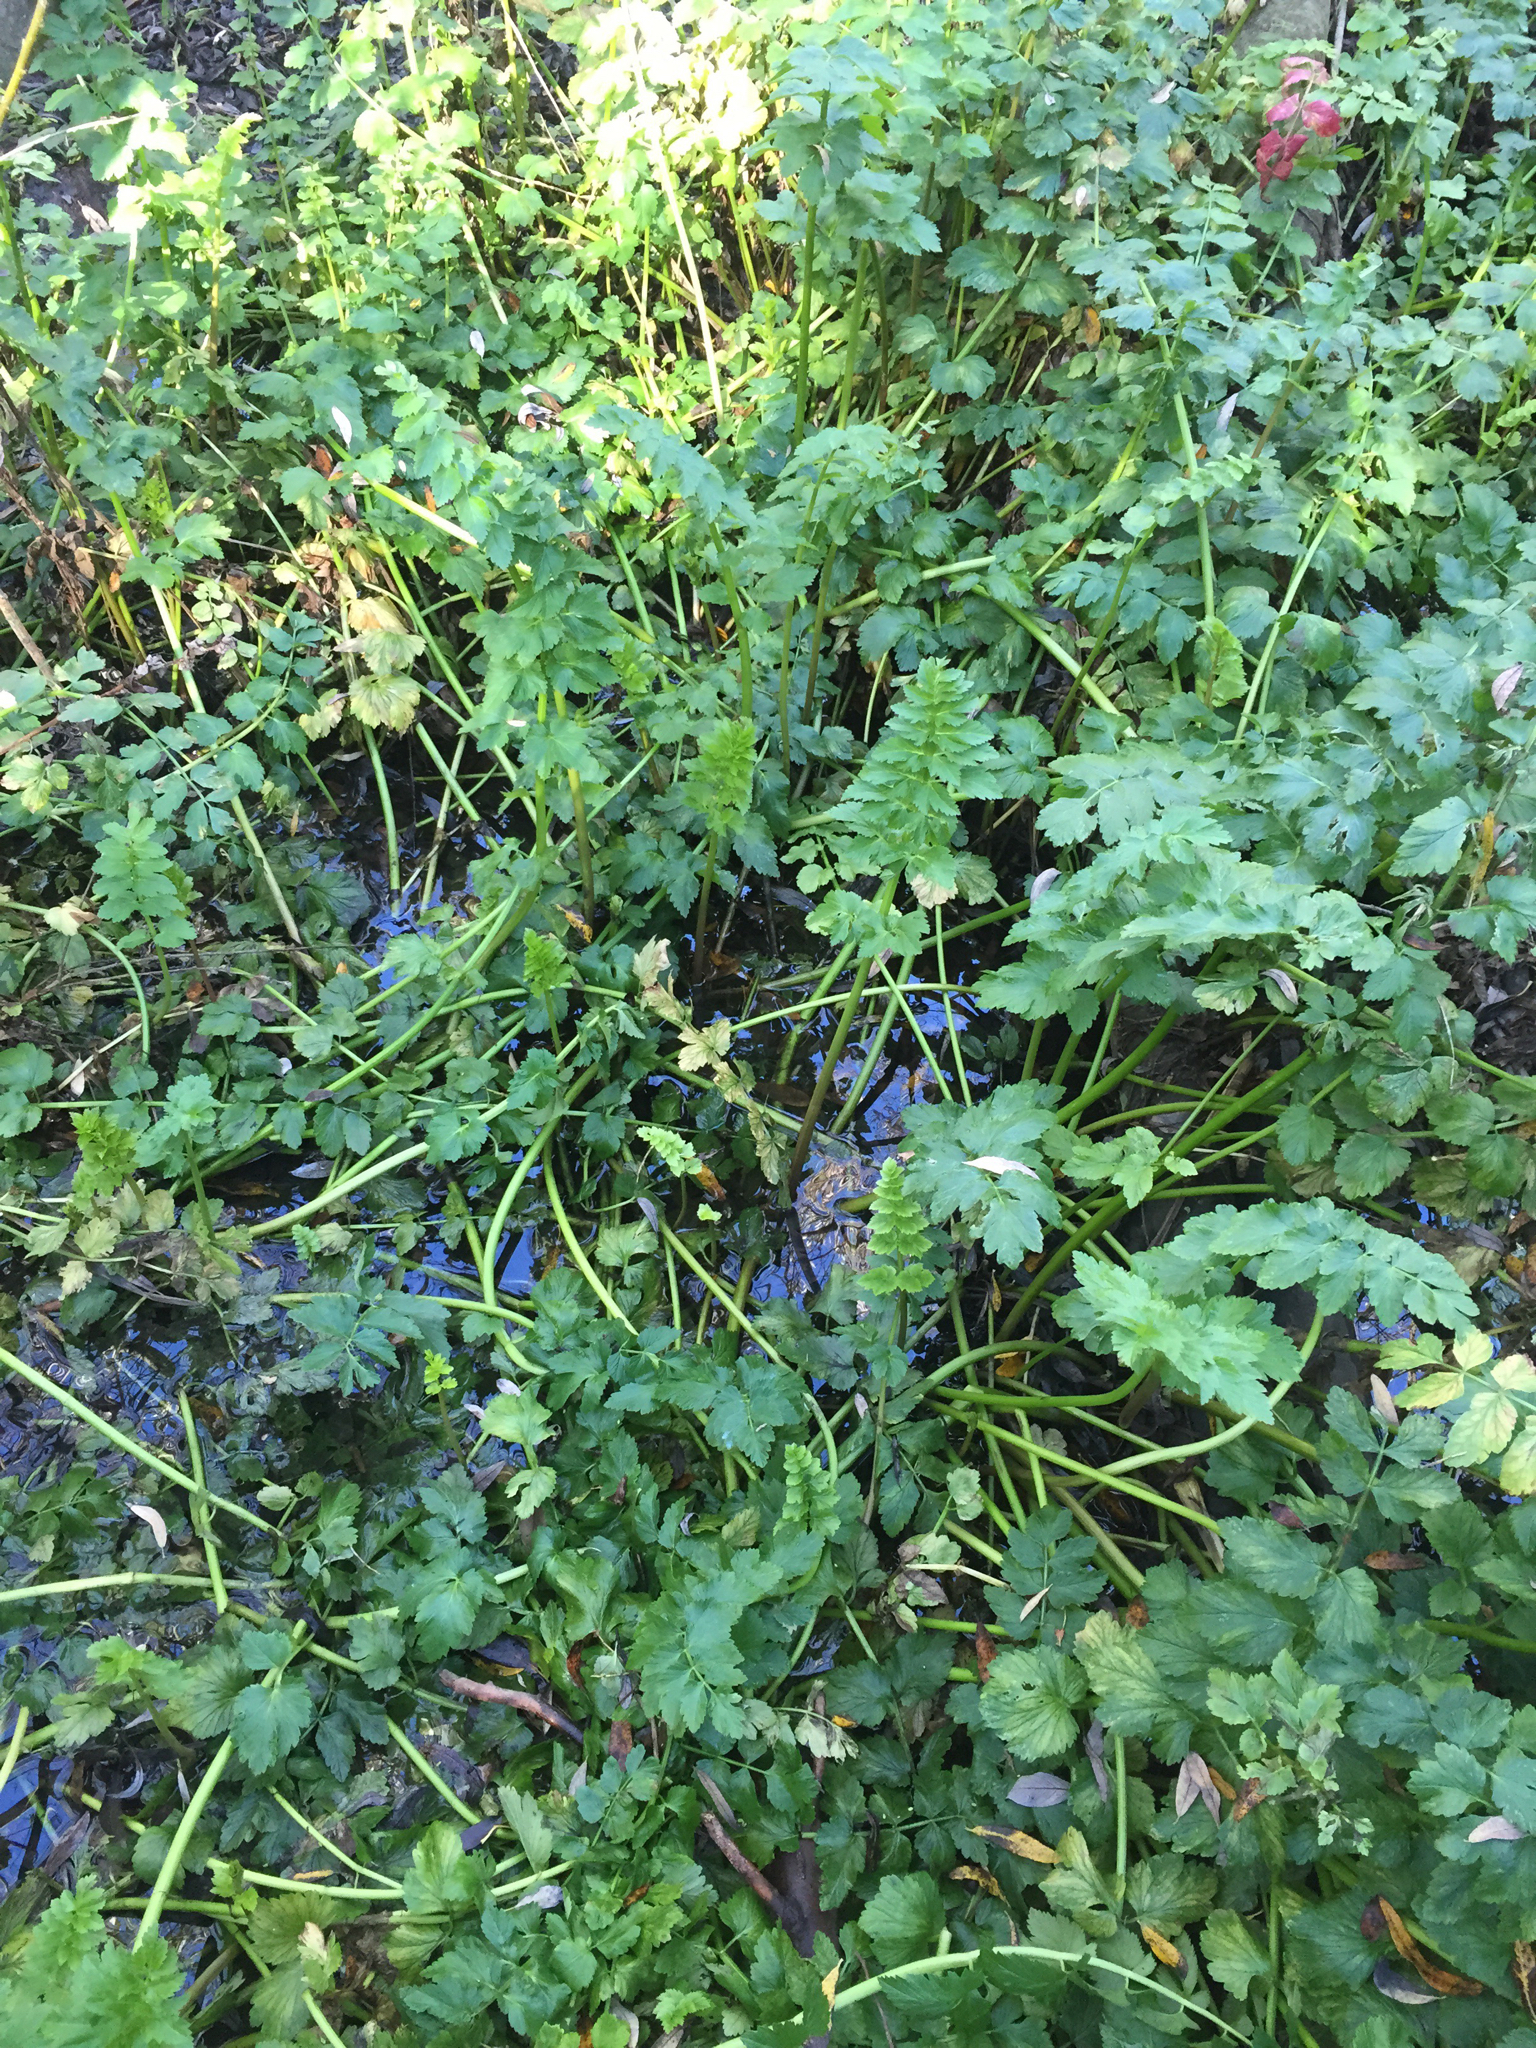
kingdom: Plantae
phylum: Tracheophyta
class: Magnoliopsida
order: Apiales
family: Apiaceae
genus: Oenanthe
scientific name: Oenanthe sarmentosa
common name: American water-parsley
